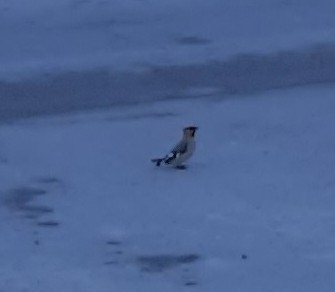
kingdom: Animalia
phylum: Chordata
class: Aves
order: Passeriformes
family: Bombycillidae
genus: Bombycilla
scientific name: Bombycilla garrulus
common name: Bohemian waxwing
